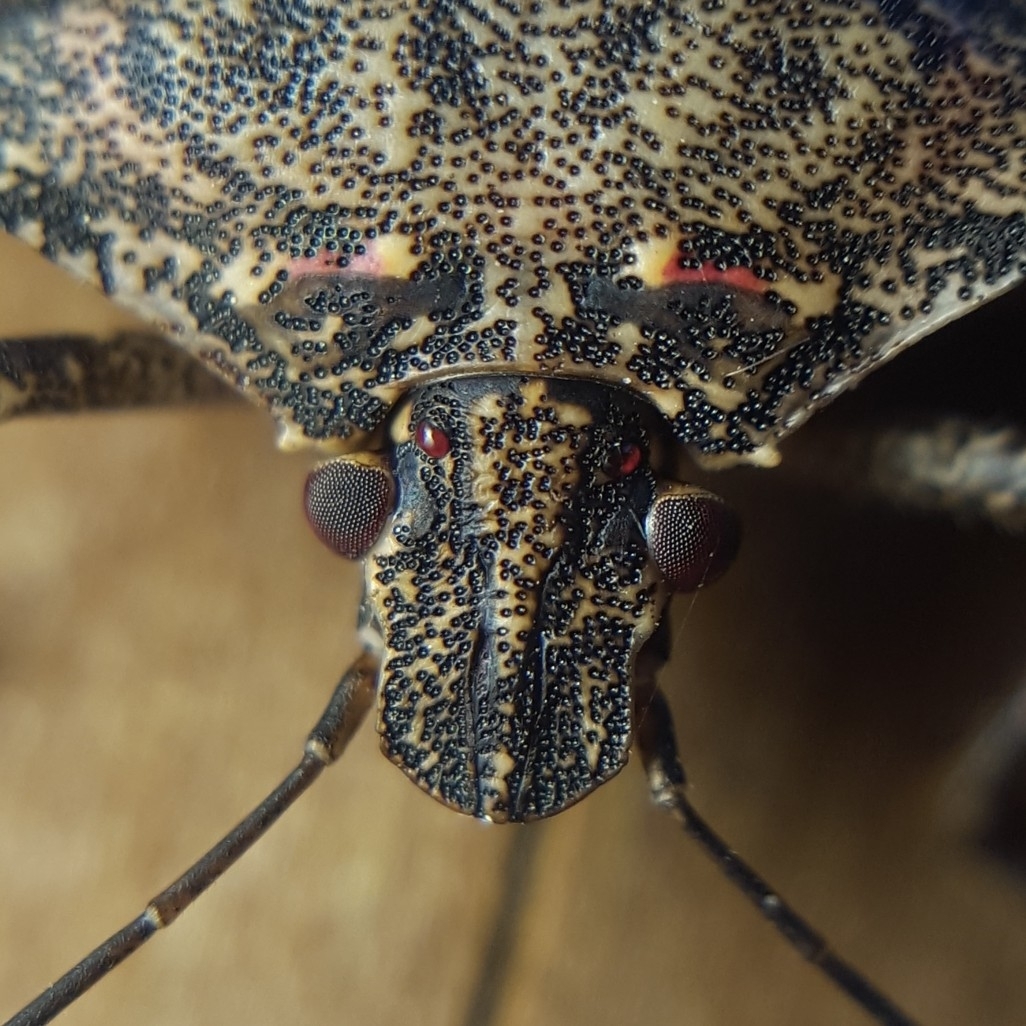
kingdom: Animalia
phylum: Arthropoda
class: Insecta
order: Hemiptera
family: Pentatomidae
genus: Halyomorpha
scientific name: Halyomorpha halys
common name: Brown marmorated stink bug
